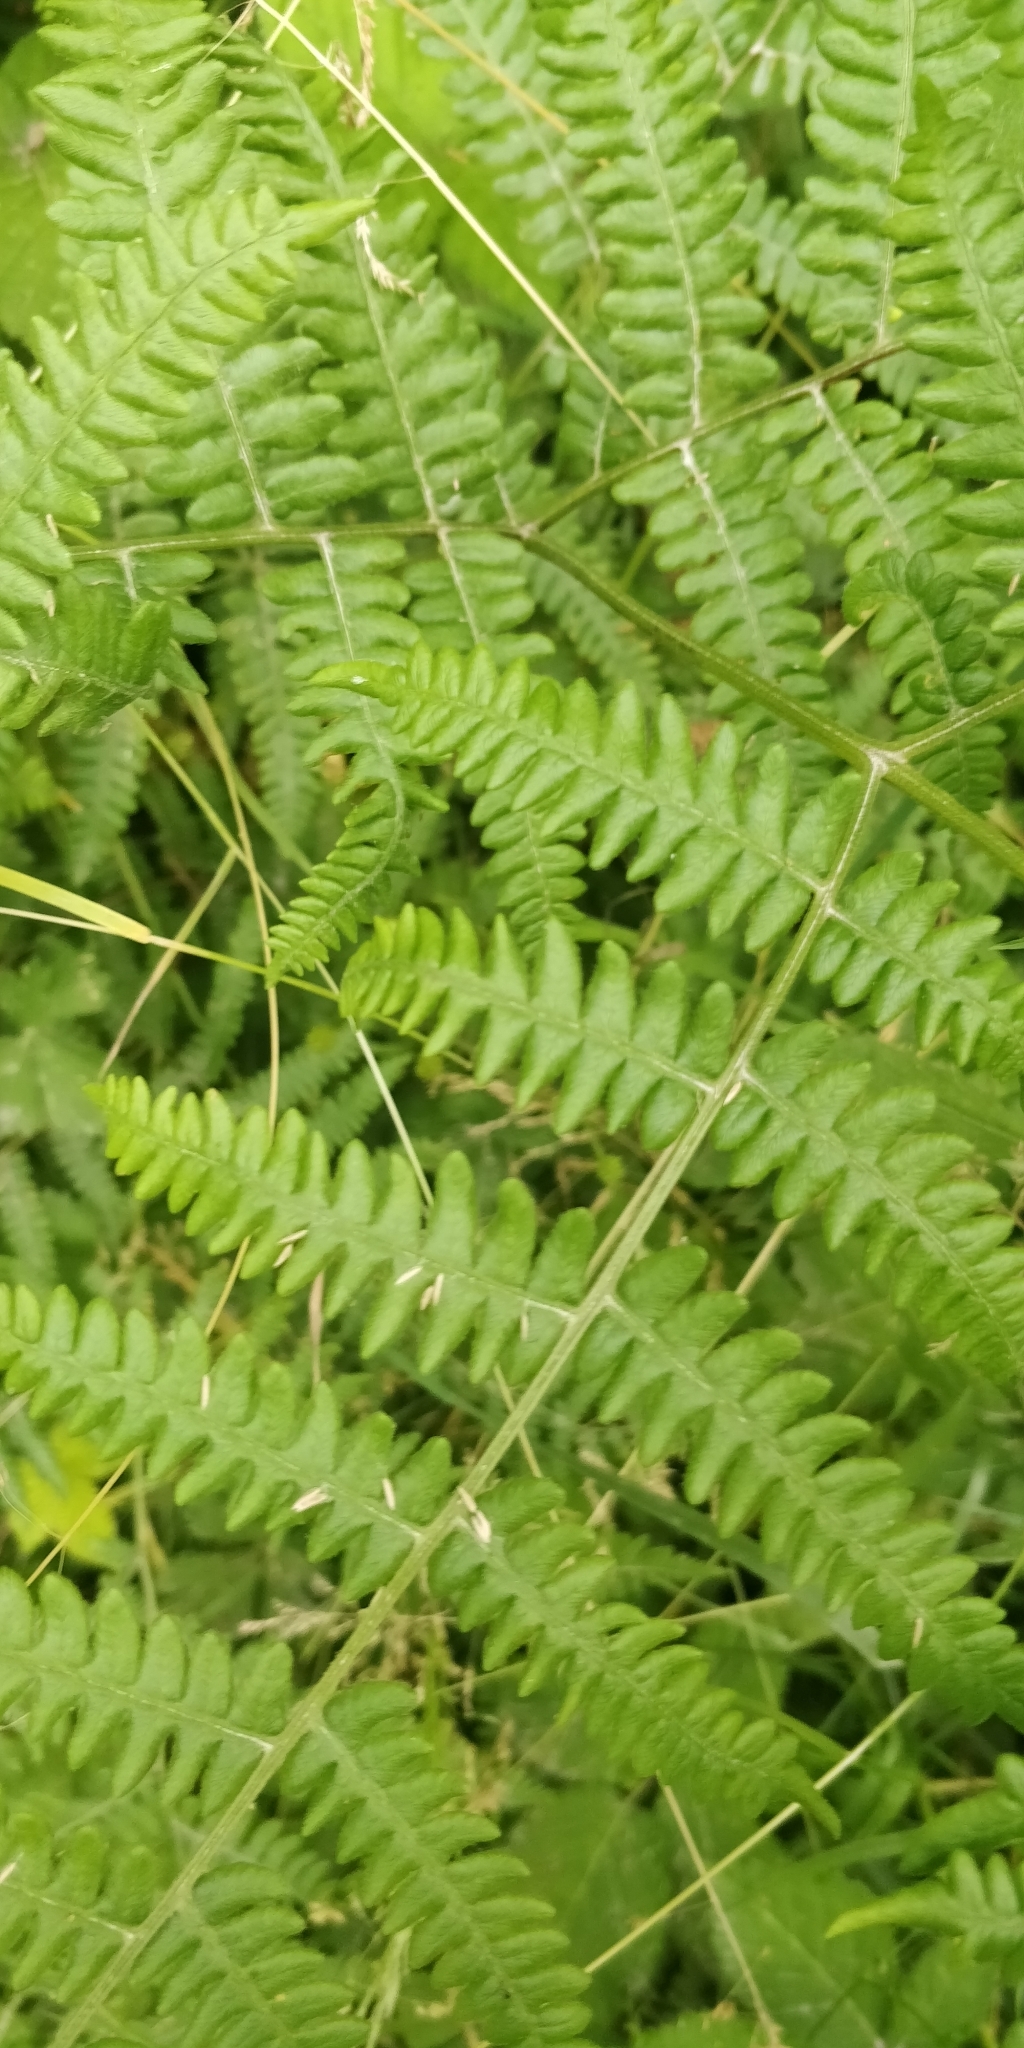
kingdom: Plantae
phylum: Tracheophyta
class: Polypodiopsida
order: Polypodiales
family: Dennstaedtiaceae
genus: Pteridium
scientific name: Pteridium aquilinum
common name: Bracken
